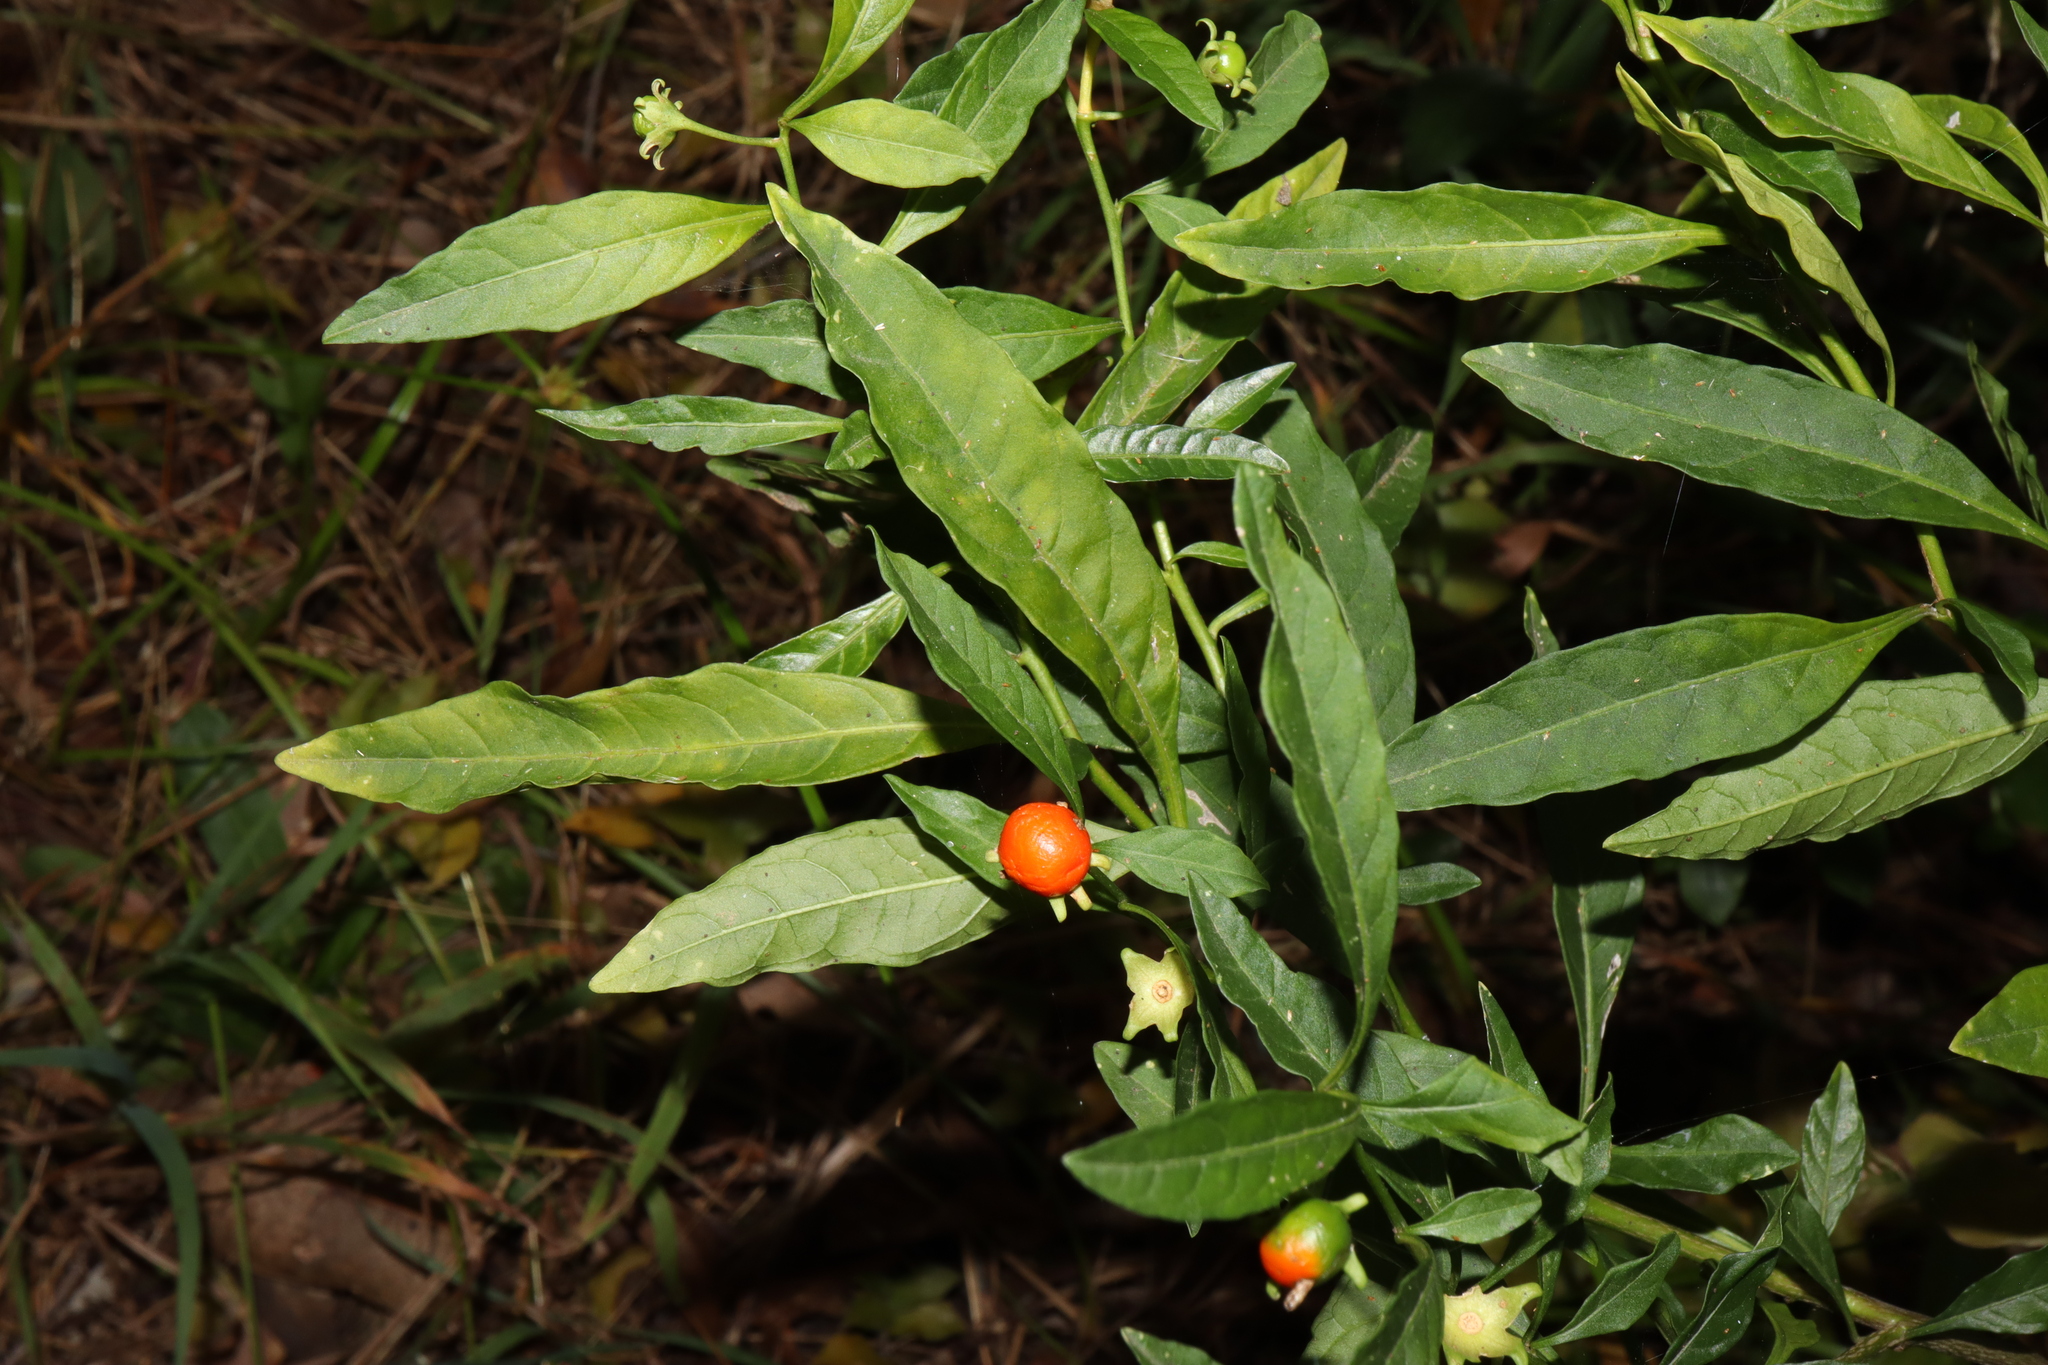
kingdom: Plantae
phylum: Tracheophyta
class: Magnoliopsida
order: Solanales
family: Solanaceae
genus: Solanum
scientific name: Solanum pseudocapsicum
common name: Jerusalem cherry
